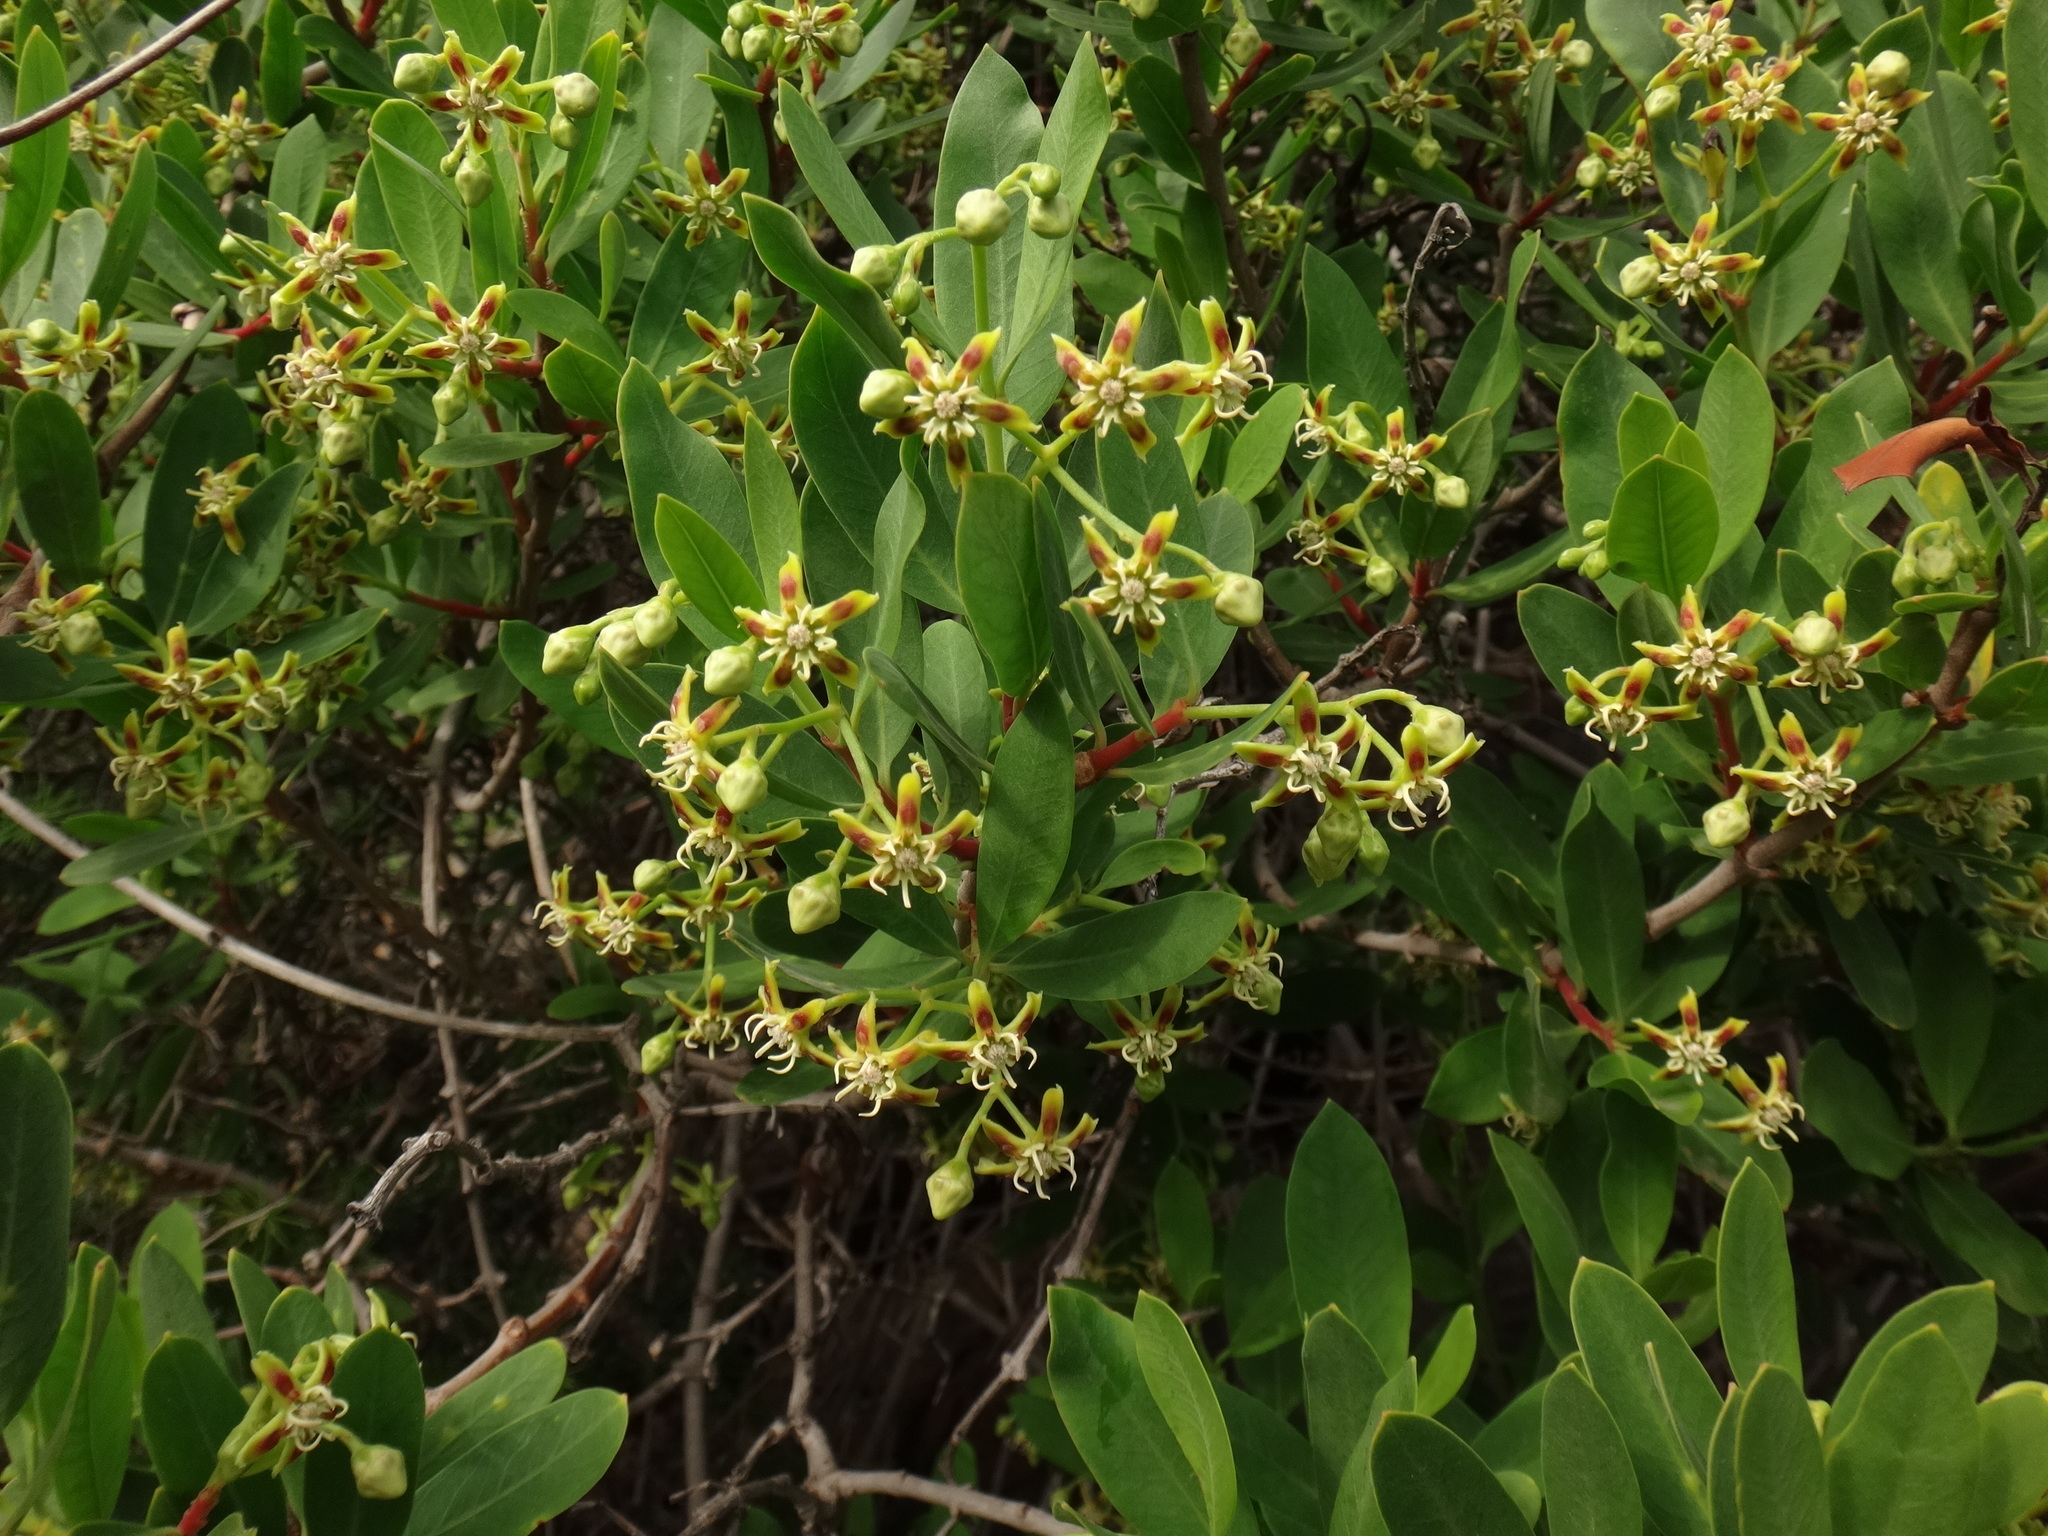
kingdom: Plantae
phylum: Tracheophyta
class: Magnoliopsida
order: Gentianales
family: Apocynaceae
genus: Periploca
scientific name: Periploca laevigata
